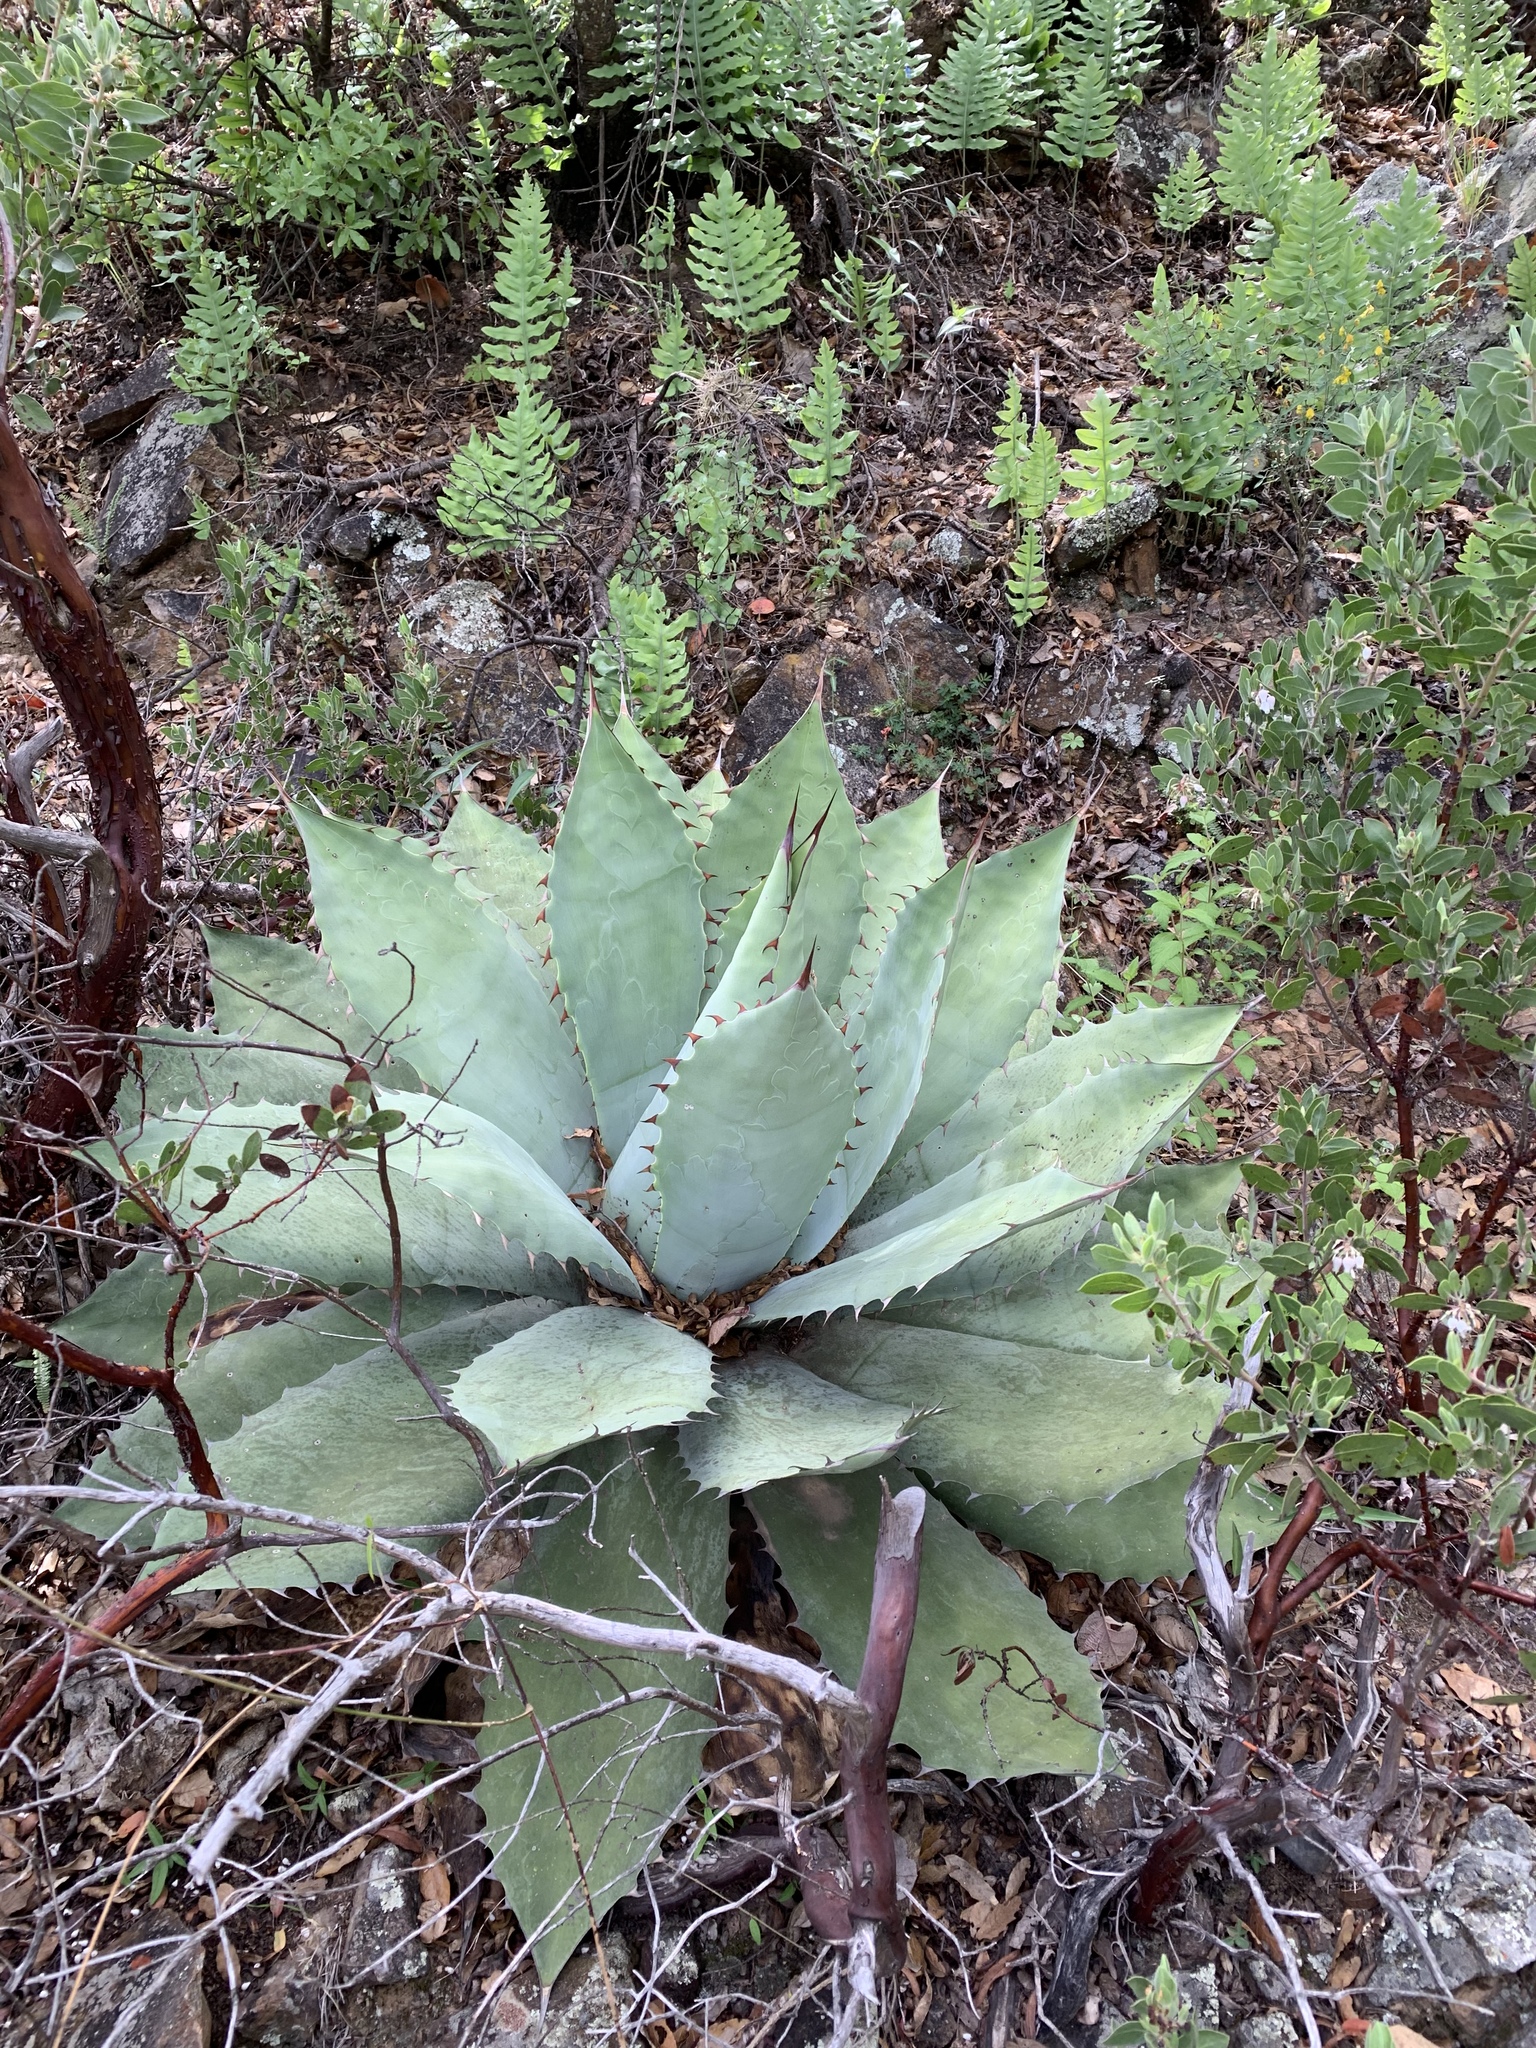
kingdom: Plantae
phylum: Tracheophyta
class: Liliopsida
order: Asparagales
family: Asparagaceae
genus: Agave
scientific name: Agave seemanniana
